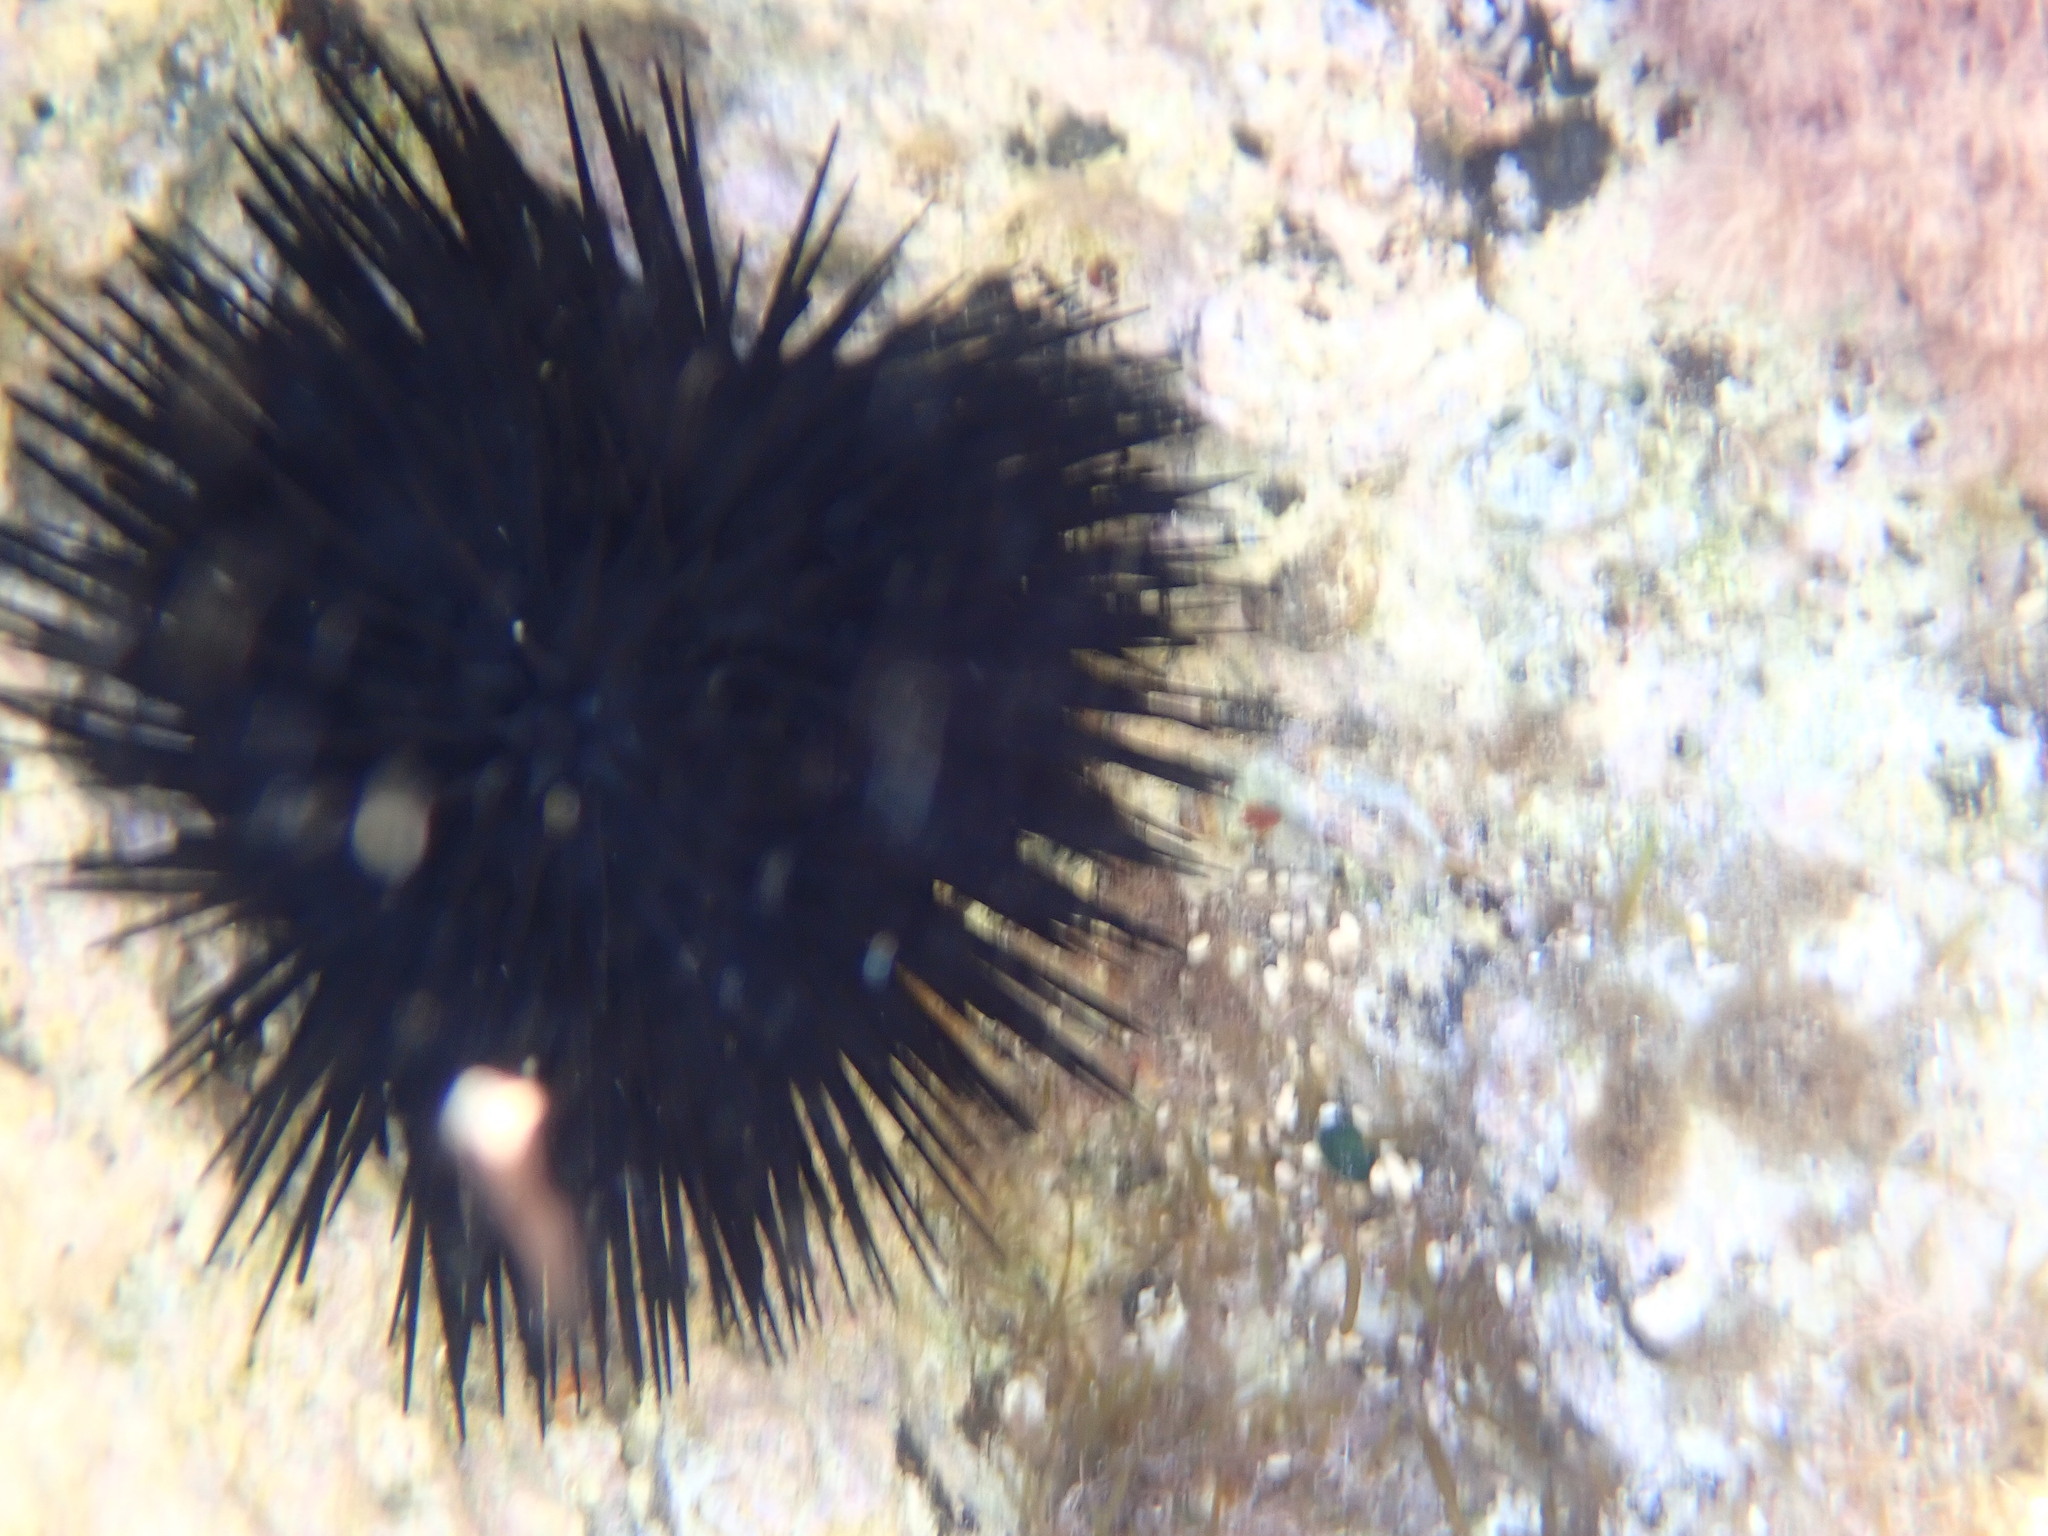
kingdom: Animalia
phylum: Echinodermata
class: Echinoidea
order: Arbacioida
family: Arbaciidae
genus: Arbacia
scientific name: Arbacia lixula
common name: Black sea urchin
